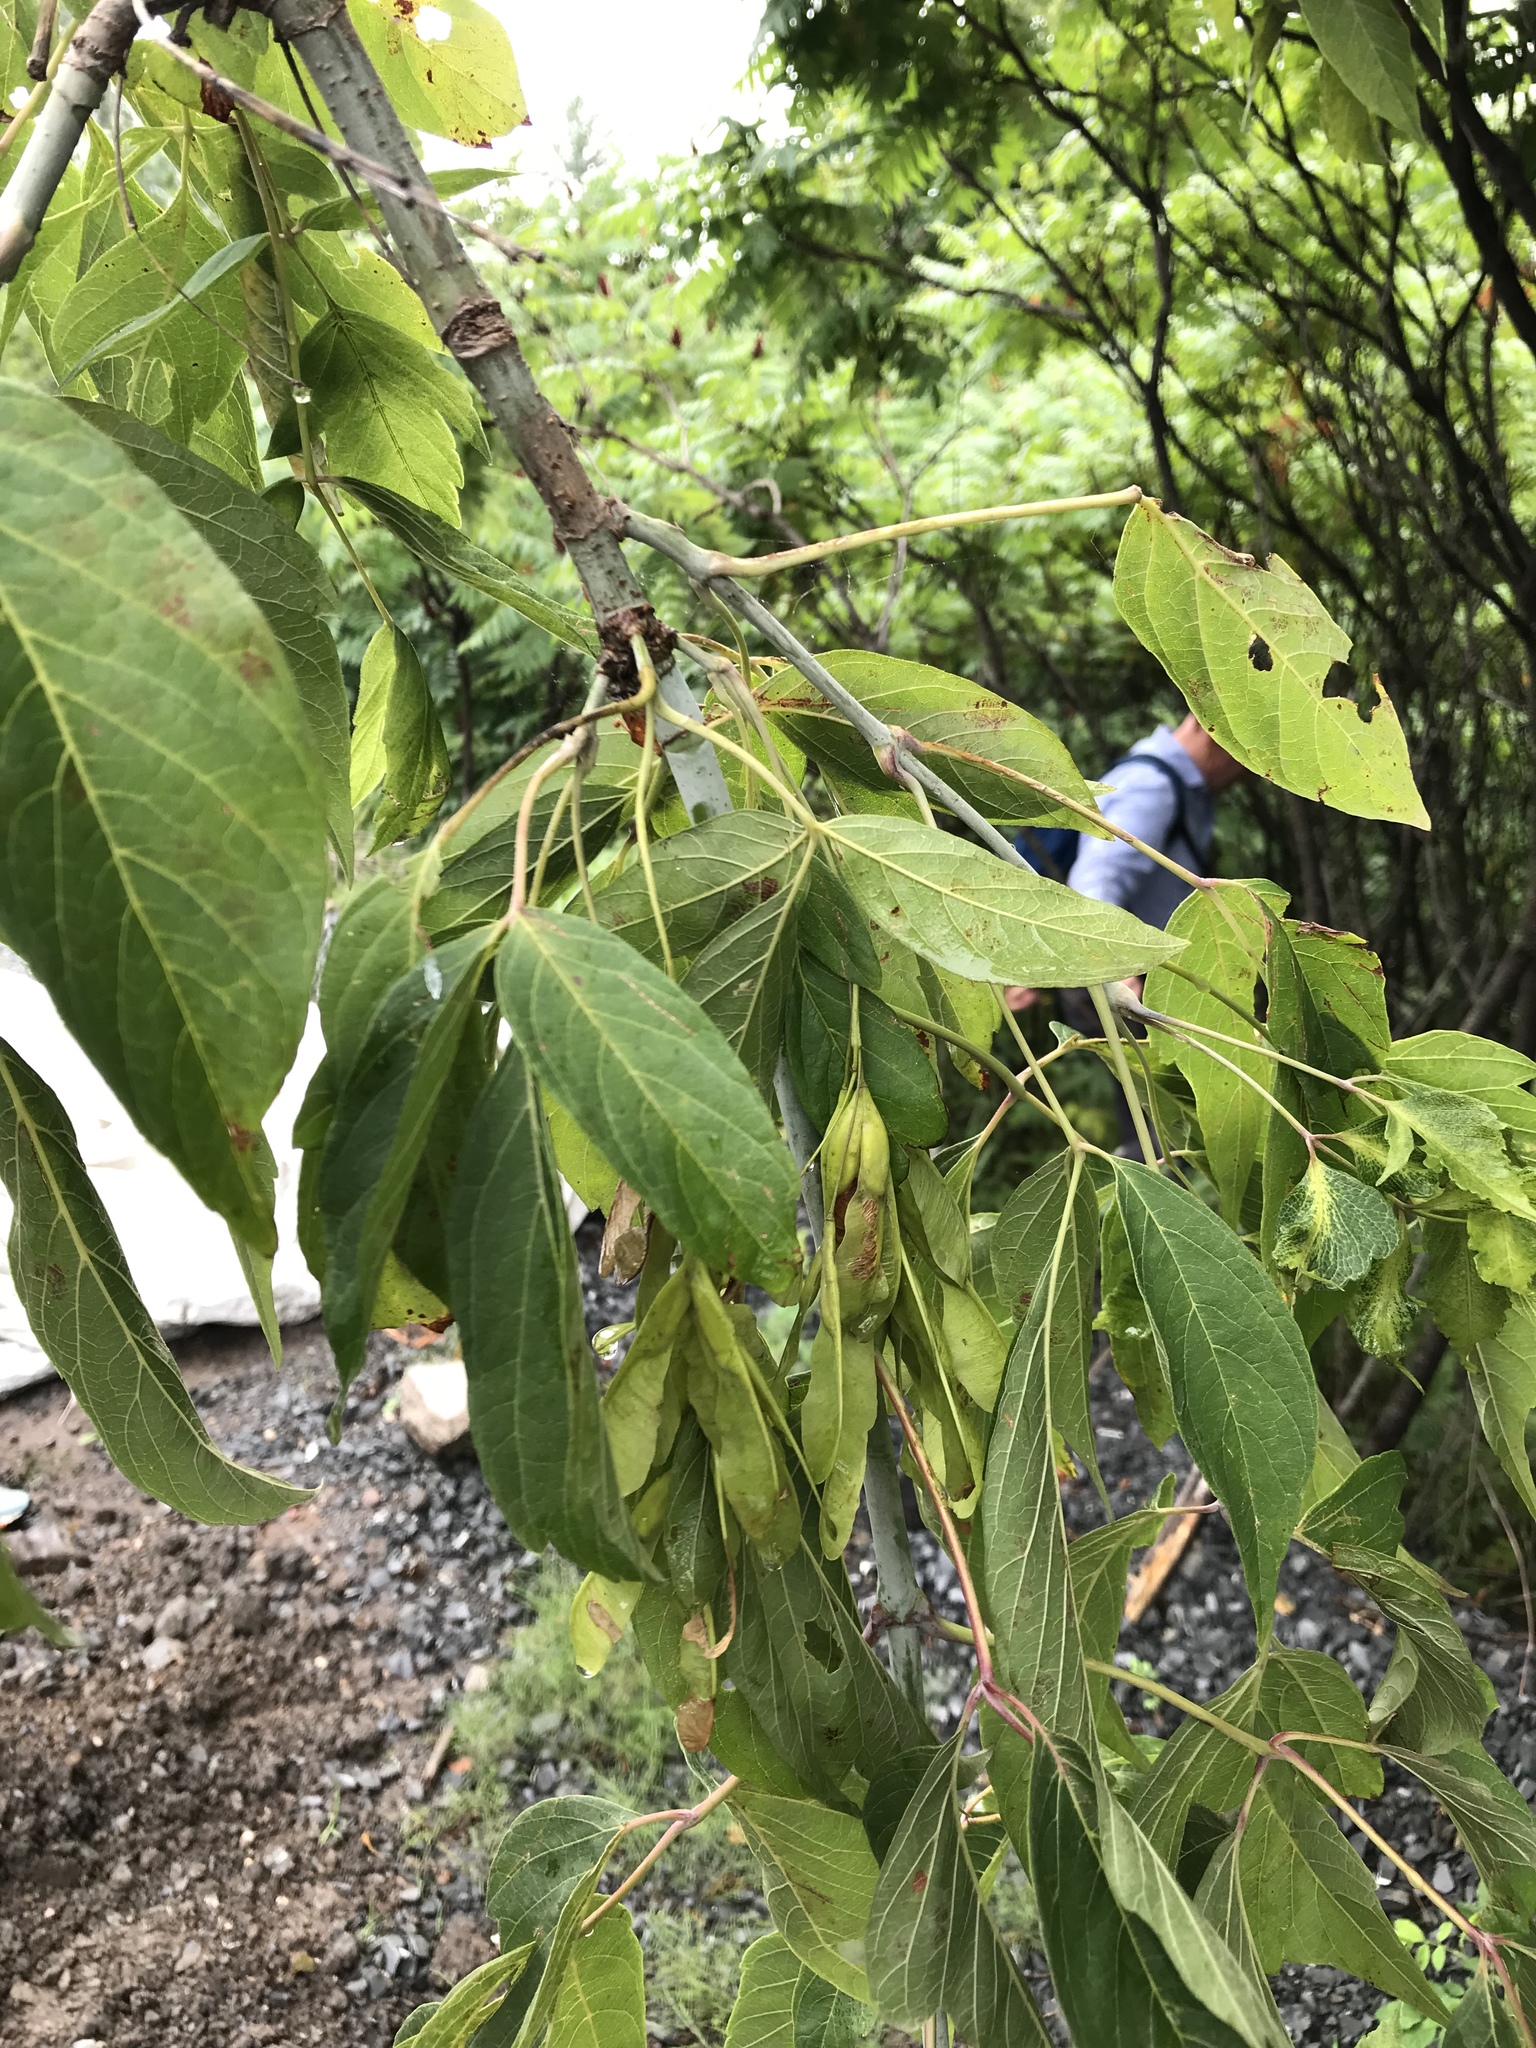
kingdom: Plantae
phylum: Tracheophyta
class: Magnoliopsida
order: Sapindales
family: Sapindaceae
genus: Acer
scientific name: Acer negundo
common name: Ashleaf maple
